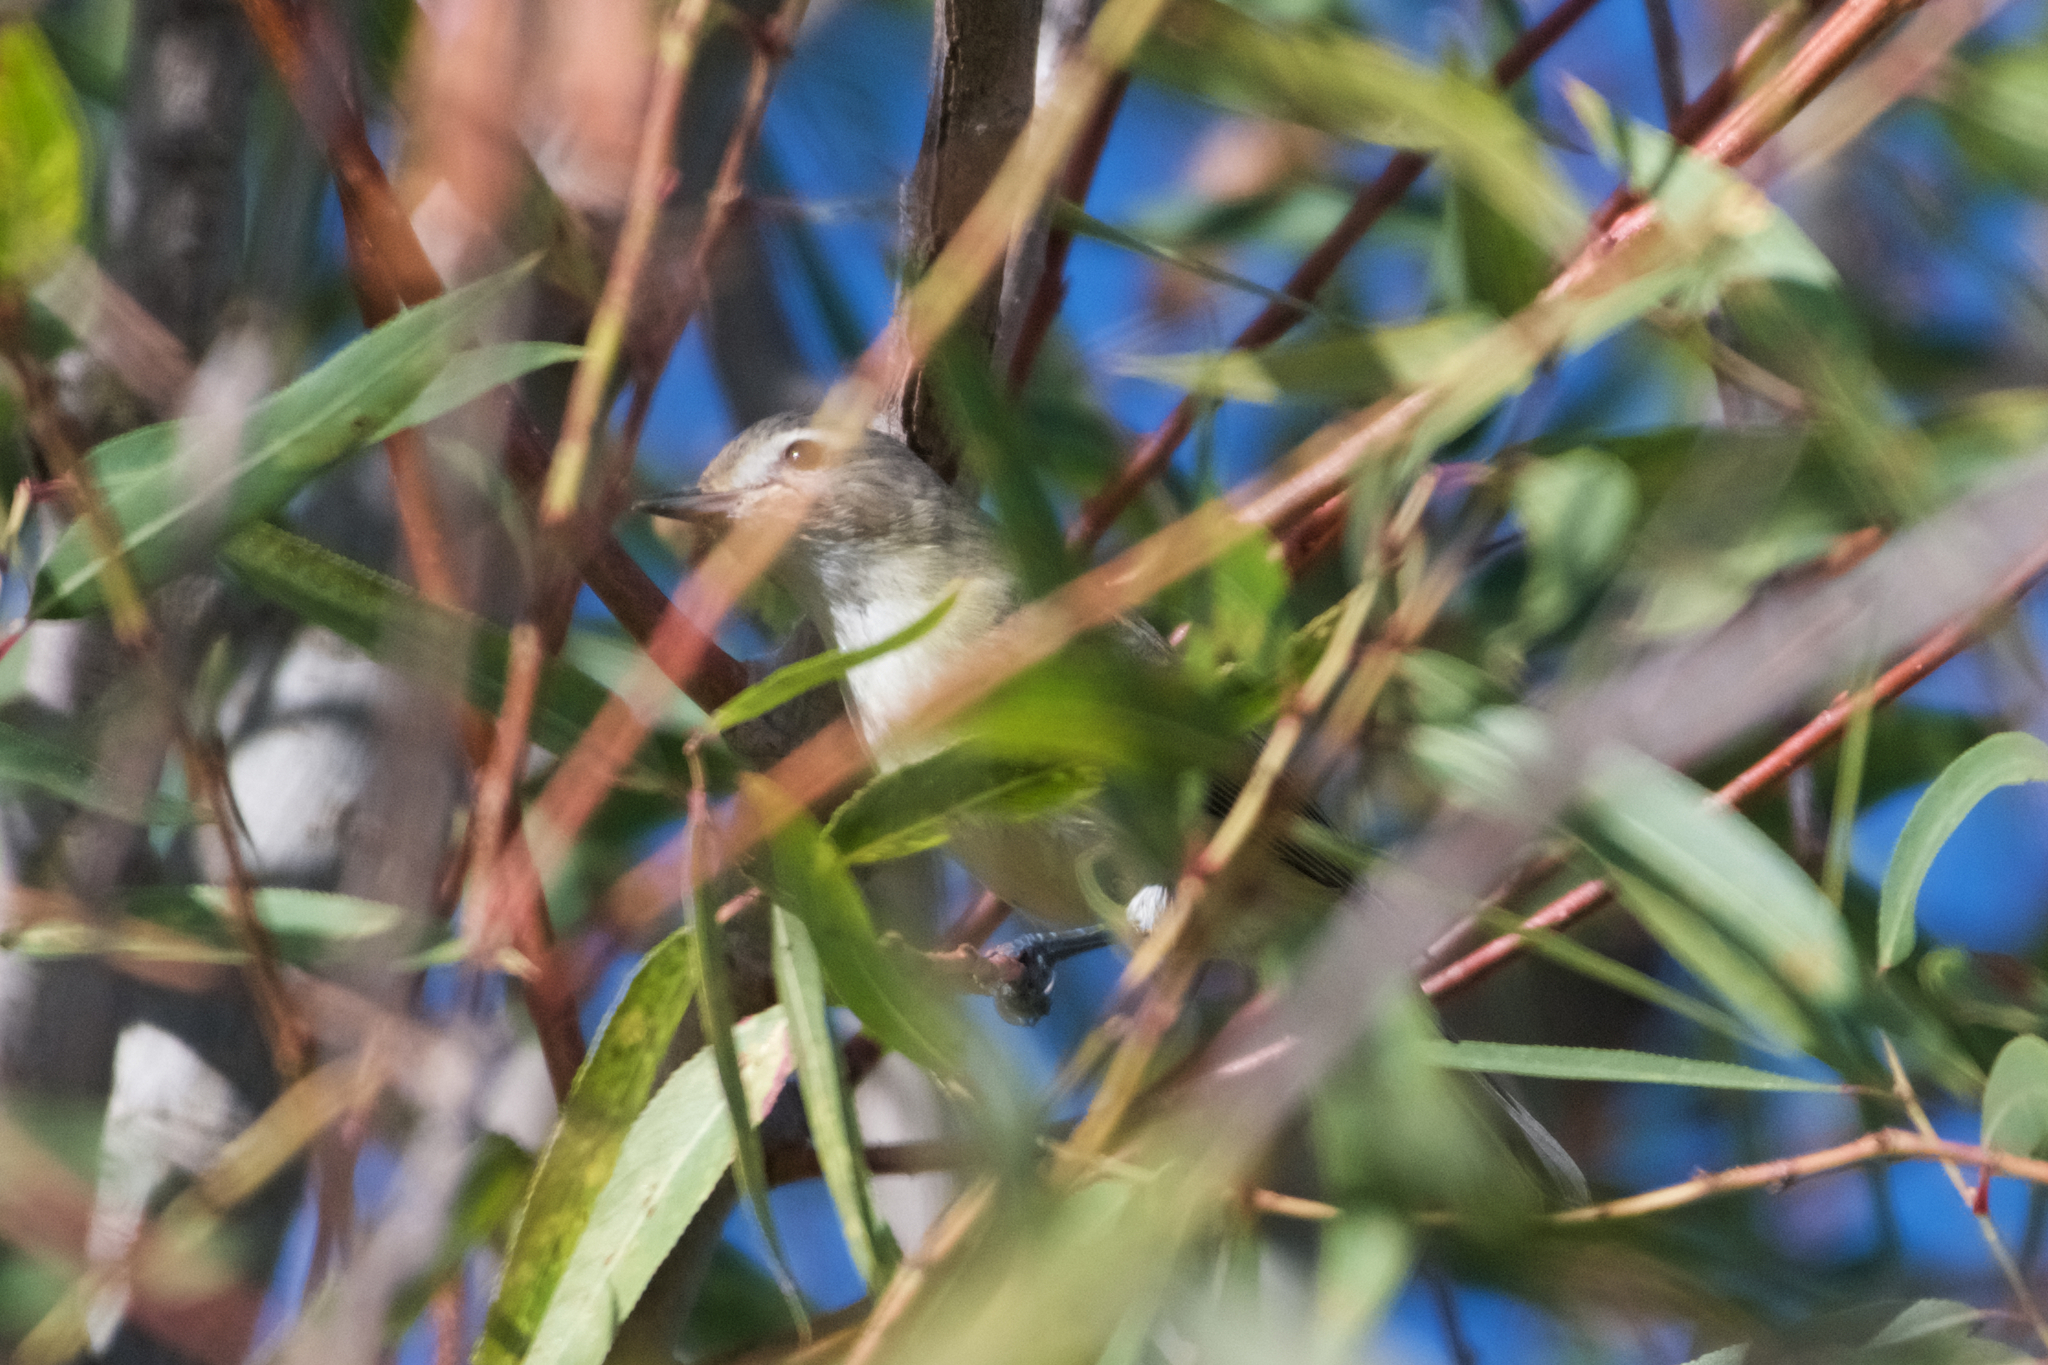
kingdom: Animalia
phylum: Chordata
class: Aves
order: Passeriformes
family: Vireonidae
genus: Vireo
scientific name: Vireo gilvus
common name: Warbling vireo
